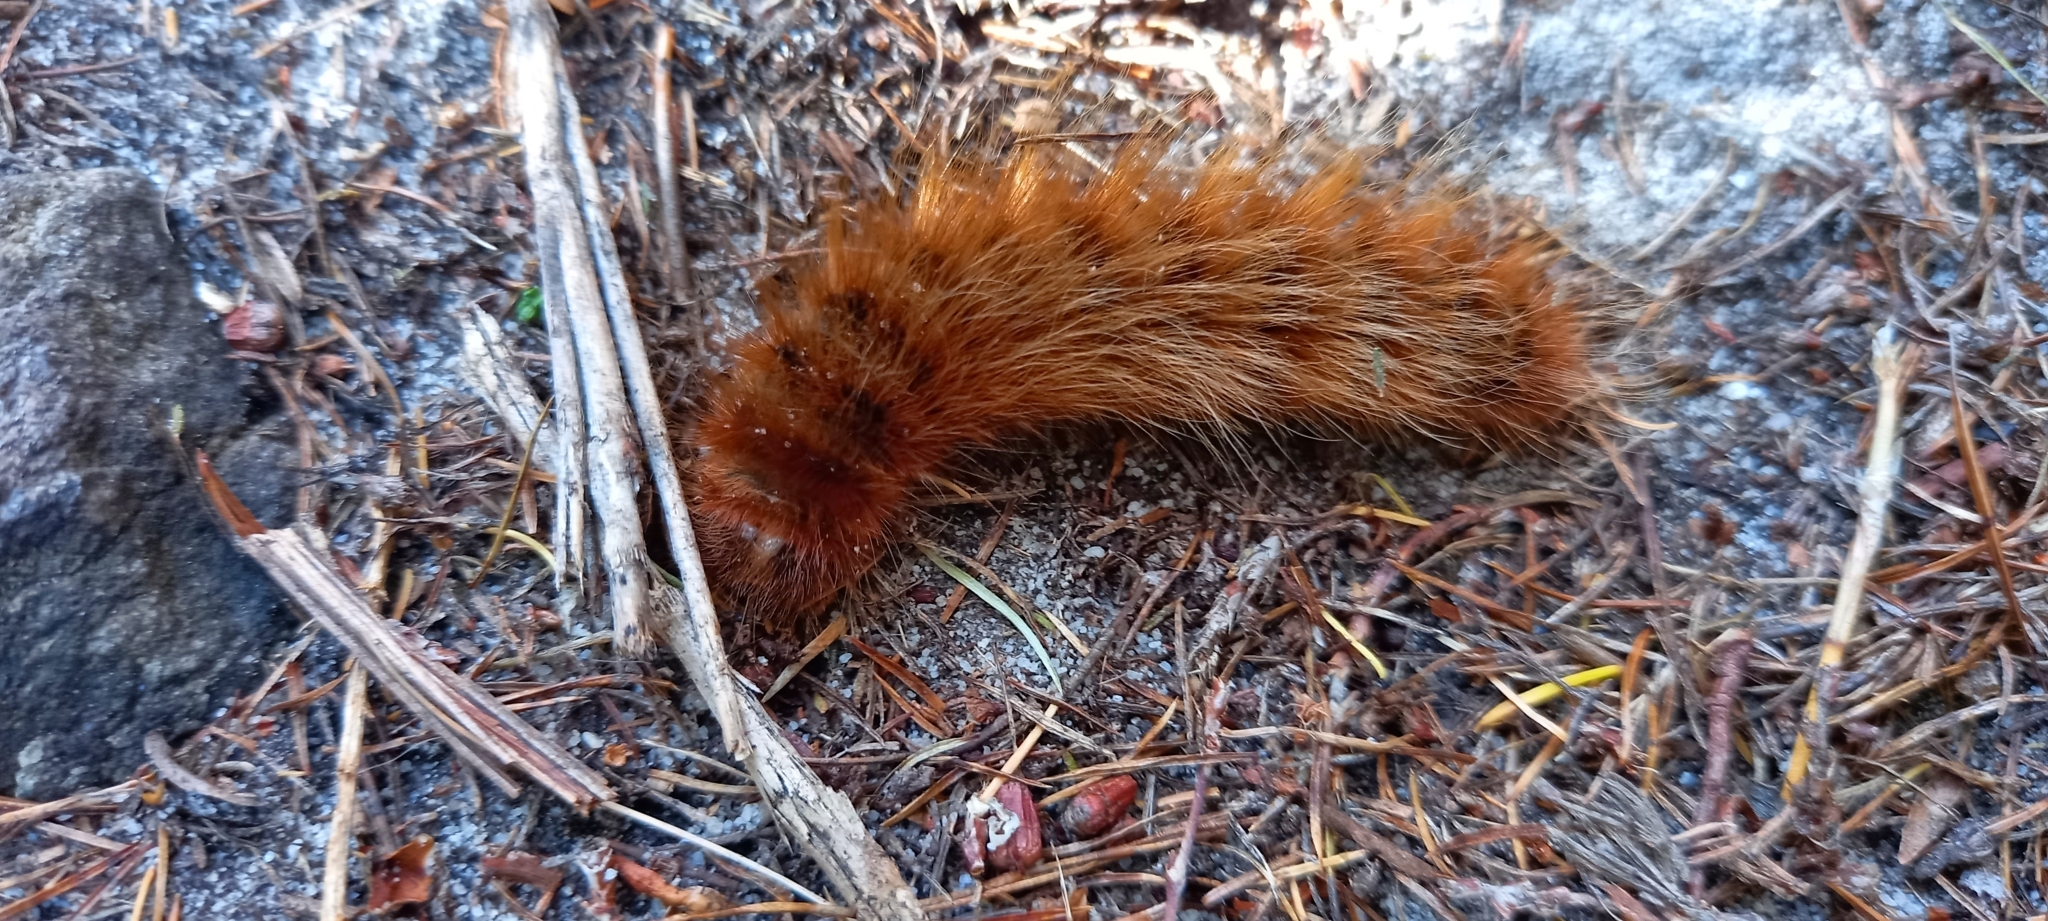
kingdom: Animalia
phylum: Arthropoda
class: Insecta
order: Lepidoptera
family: Eupterotidae
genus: Phyllalia
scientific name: Phyllalia patens
